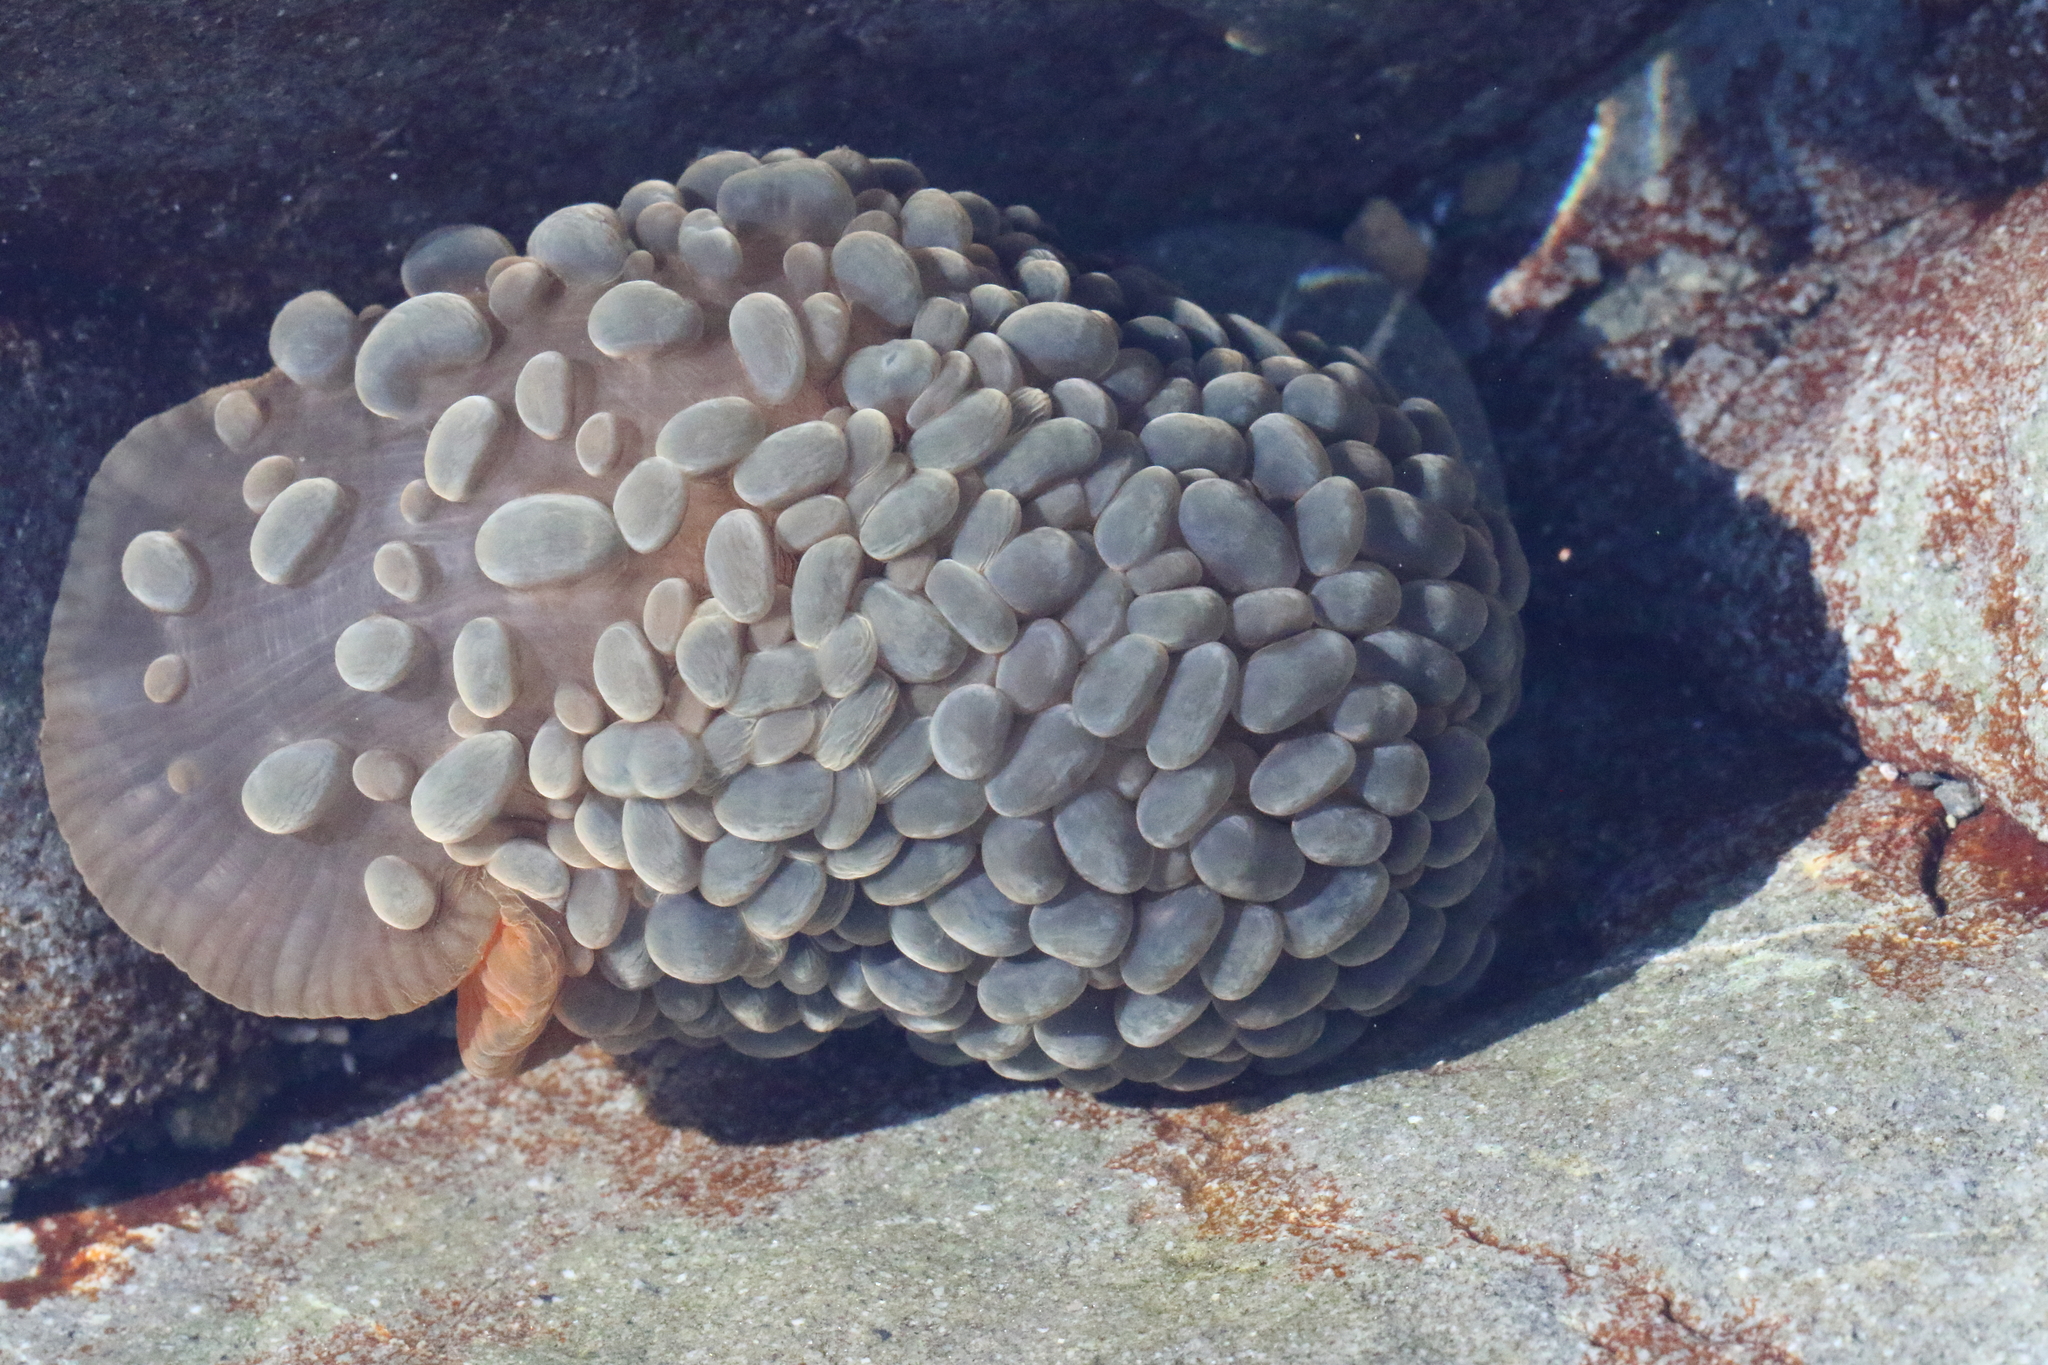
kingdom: Animalia
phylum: Cnidaria
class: Anthozoa
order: Actiniaria
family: Actiniidae
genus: Phlyctenactis
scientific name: Phlyctenactis tuberculosa
